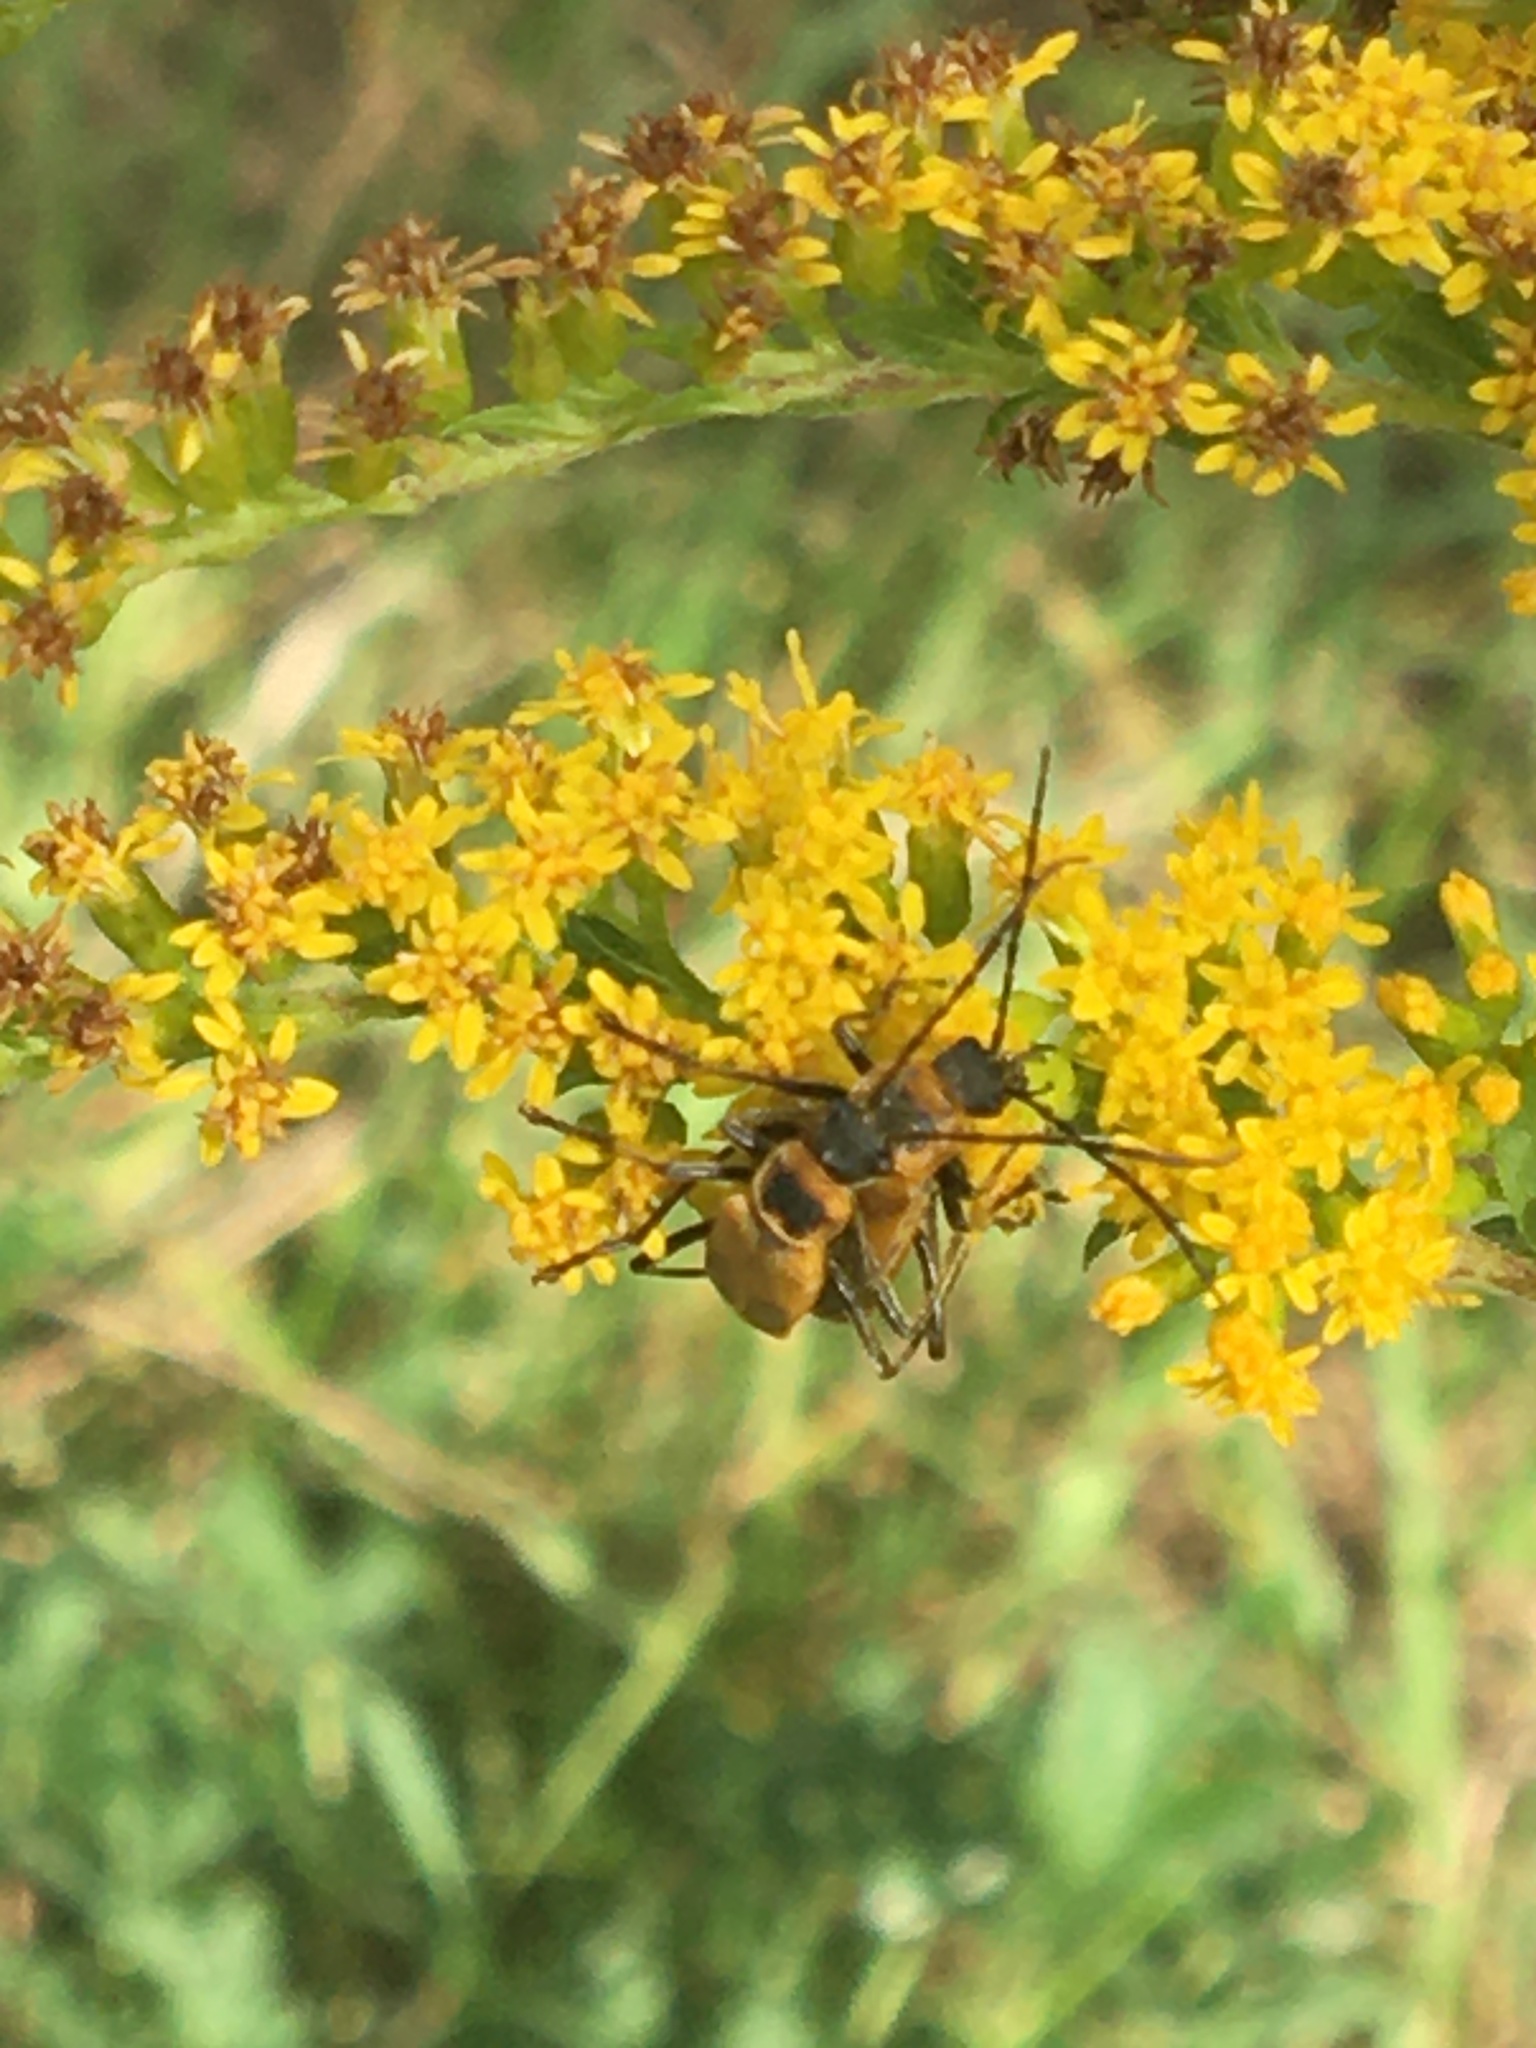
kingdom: Animalia
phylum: Arthropoda
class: Insecta
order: Coleoptera
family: Cantharidae
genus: Chauliognathus
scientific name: Chauliognathus pensylvanicus
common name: Goldenrod soldier beetle
